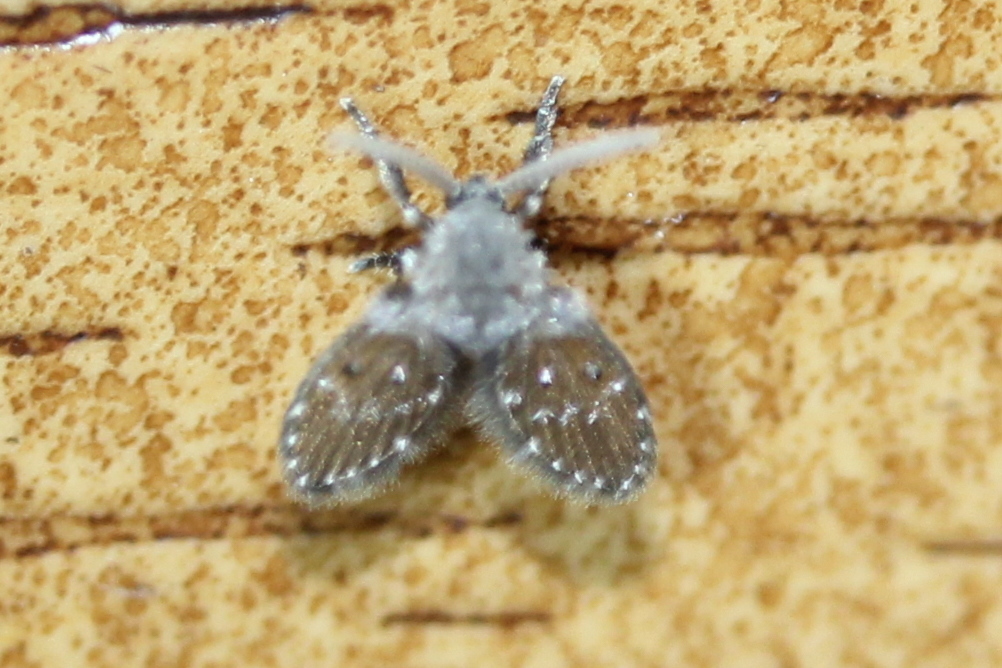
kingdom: Animalia
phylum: Arthropoda
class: Insecta
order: Diptera
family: Psychodidae
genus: Clogmia
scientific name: Clogmia albipunctatus
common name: White-spotted moth fly
